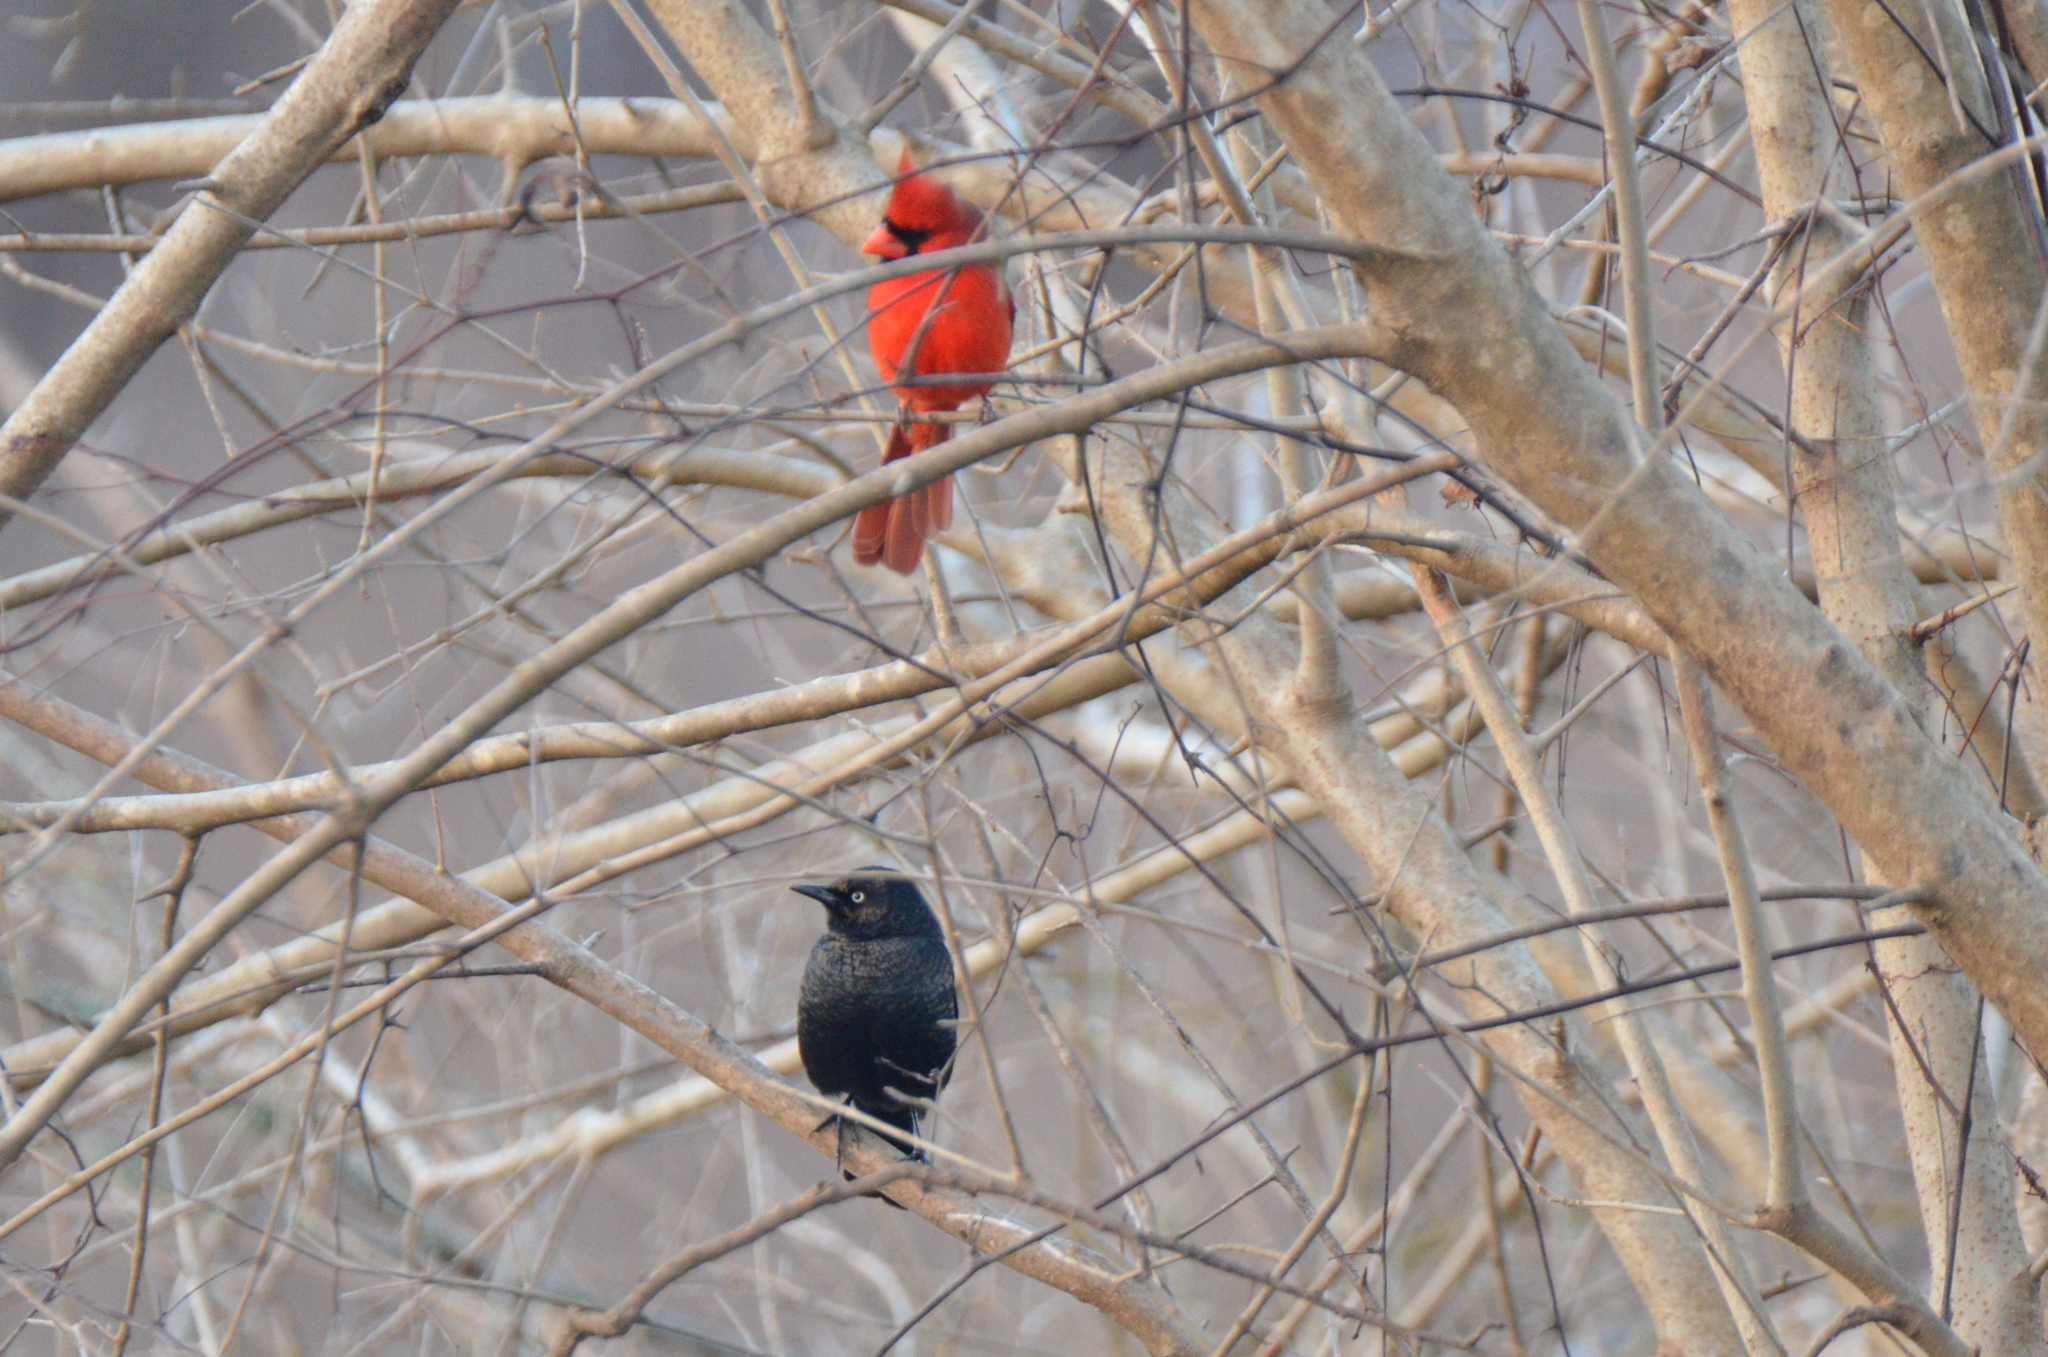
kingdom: Animalia
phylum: Chordata
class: Aves
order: Passeriformes
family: Icteridae
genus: Euphagus
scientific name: Euphagus carolinus
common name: Rusty blackbird
